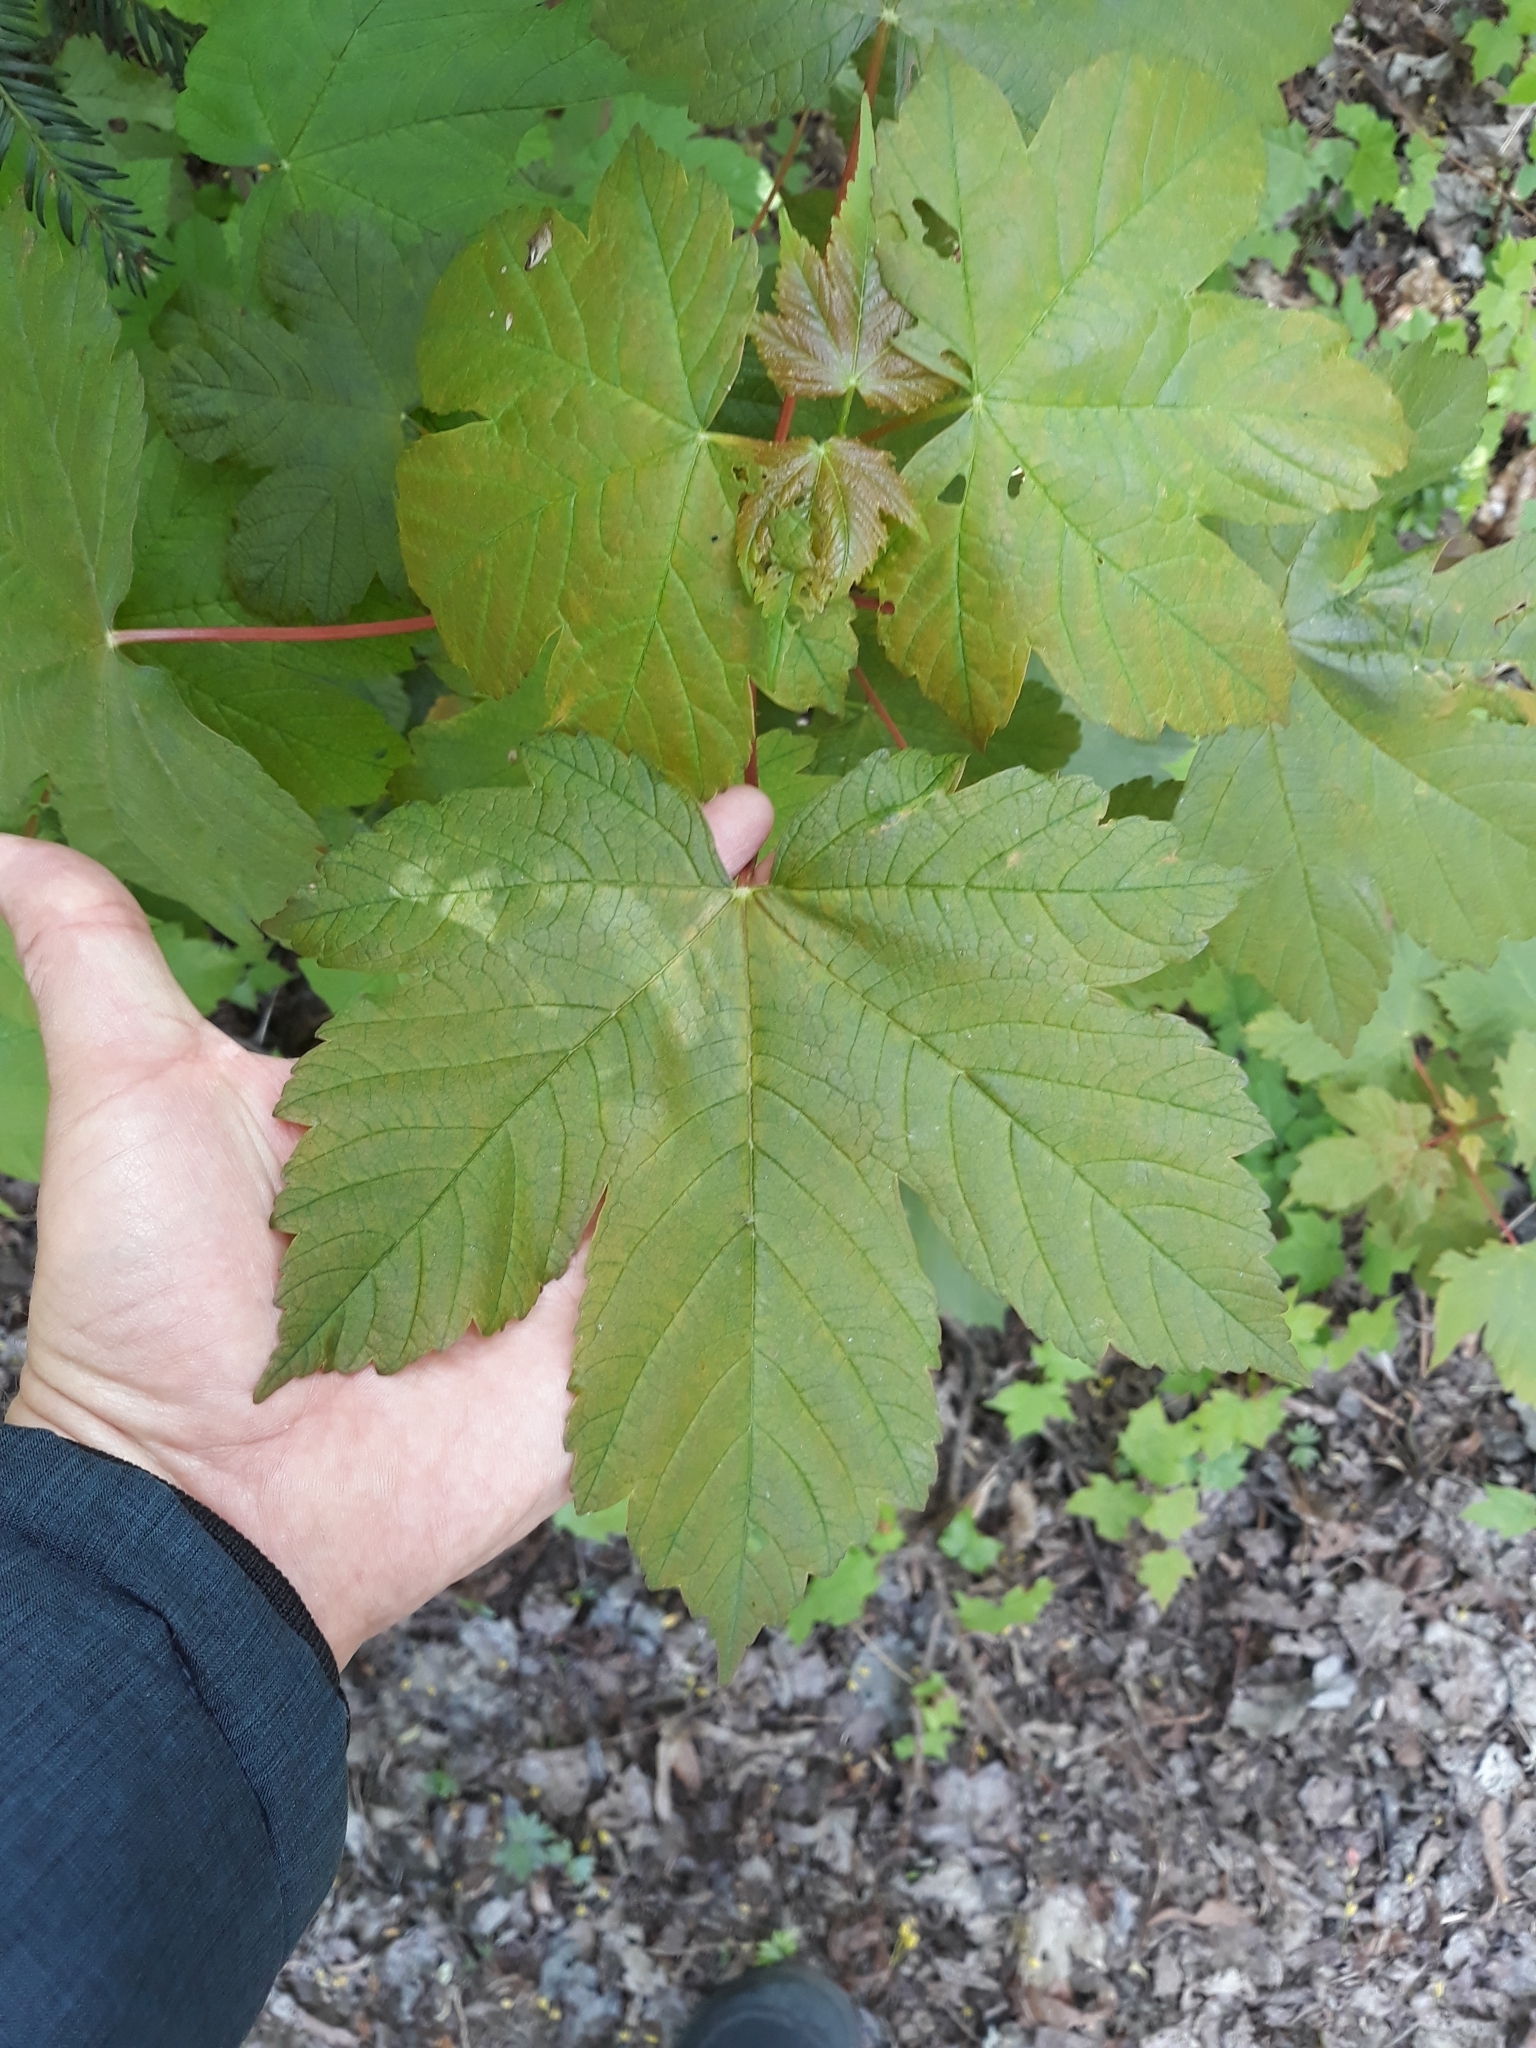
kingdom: Plantae
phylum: Tracheophyta
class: Magnoliopsida
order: Sapindales
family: Sapindaceae
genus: Acer
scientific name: Acer pseudoplatanus
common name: Sycamore
